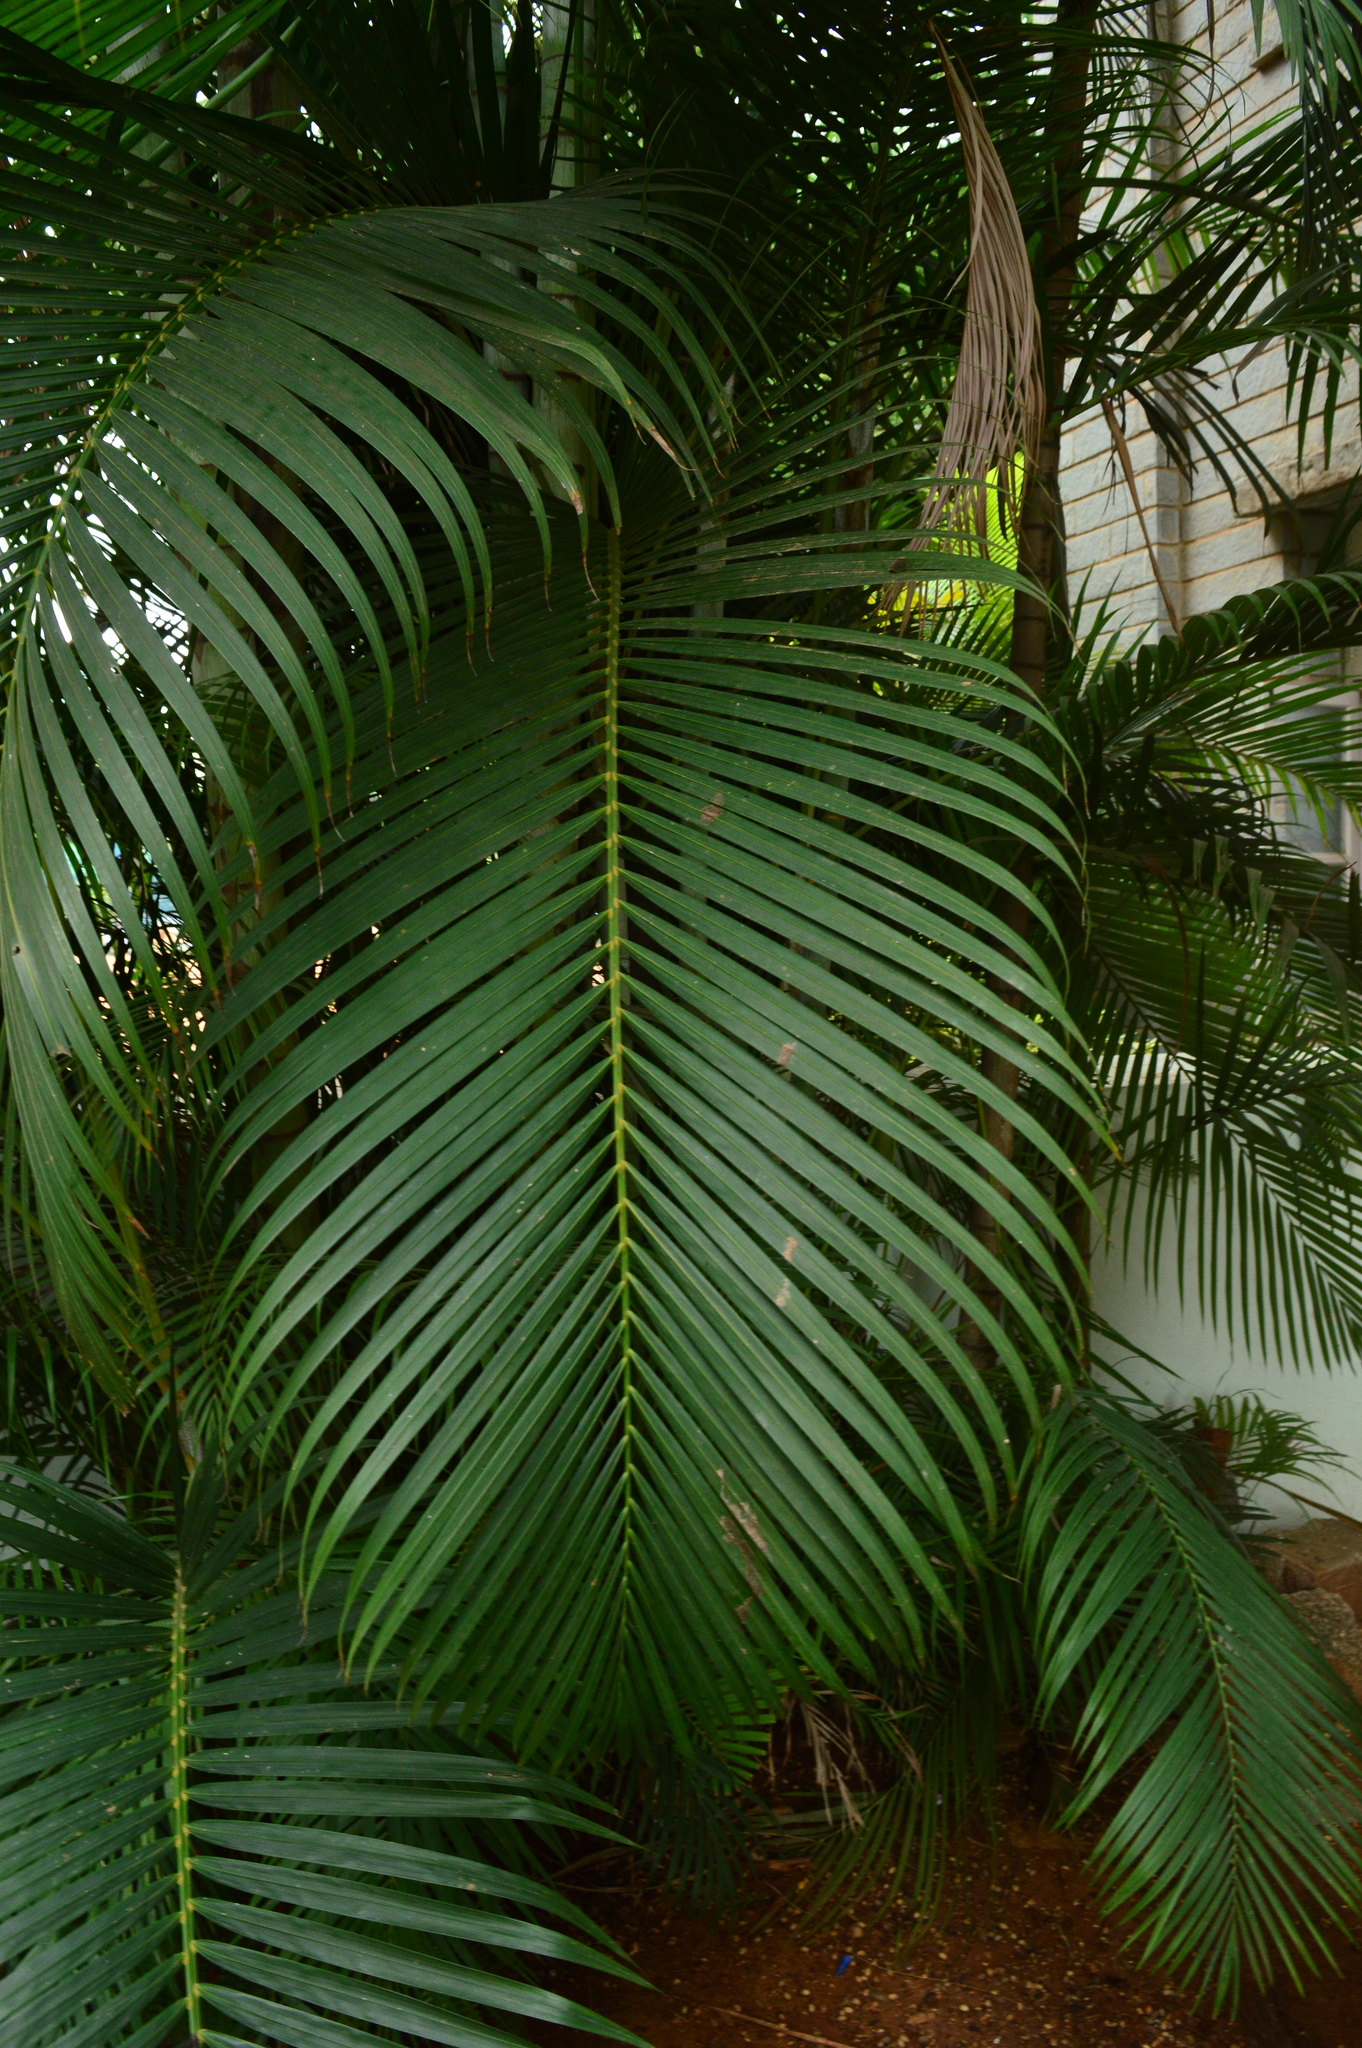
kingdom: Plantae
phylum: Tracheophyta
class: Liliopsida
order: Arecales
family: Arecaceae
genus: Dypsis
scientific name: Dypsis lutescens
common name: Yellow butterfly palm
